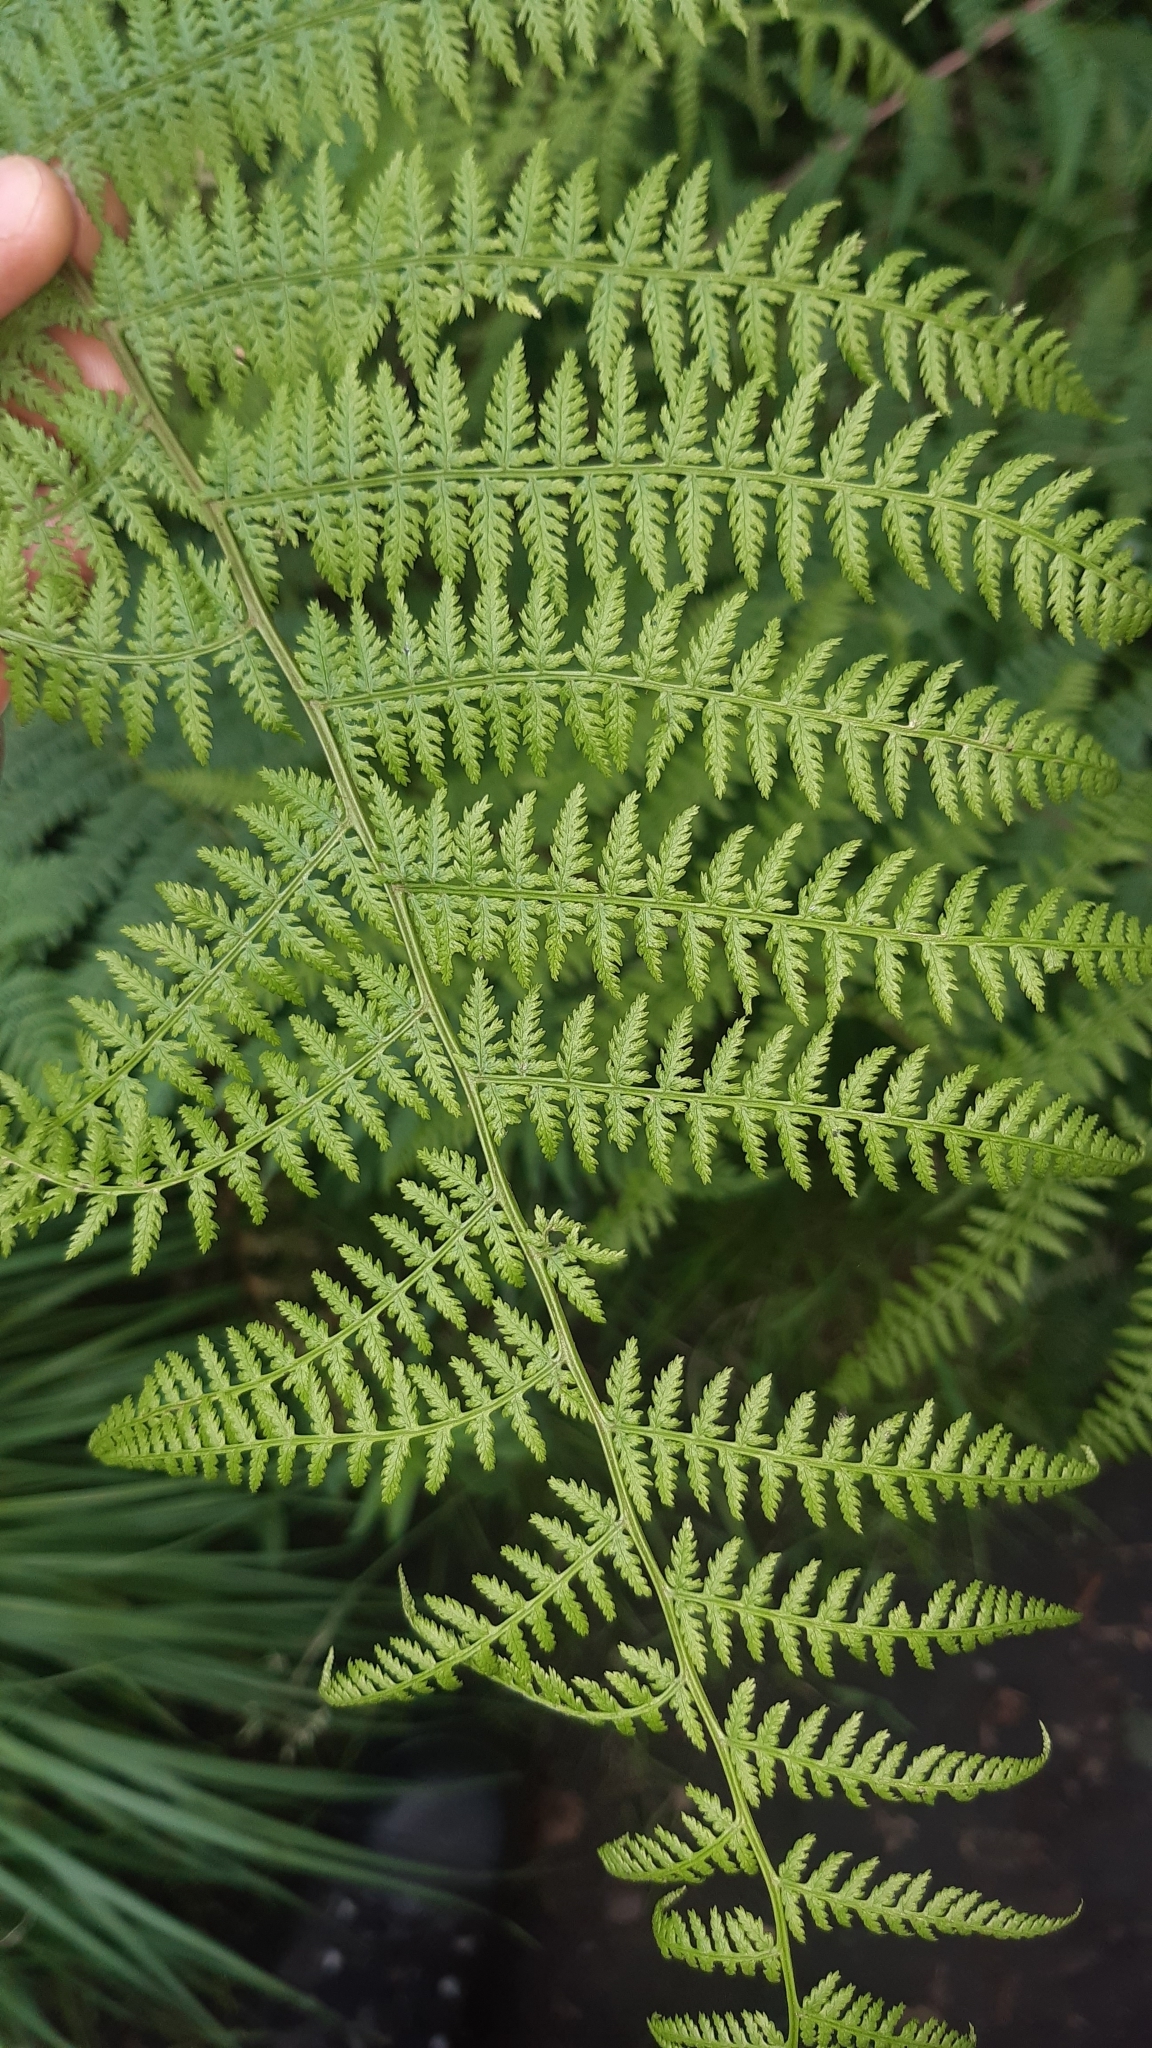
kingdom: Plantae
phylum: Tracheophyta
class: Polypodiopsida
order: Polypodiales
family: Athyriaceae
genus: Athyrium
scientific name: Athyrium filix-femina
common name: Lady fern
